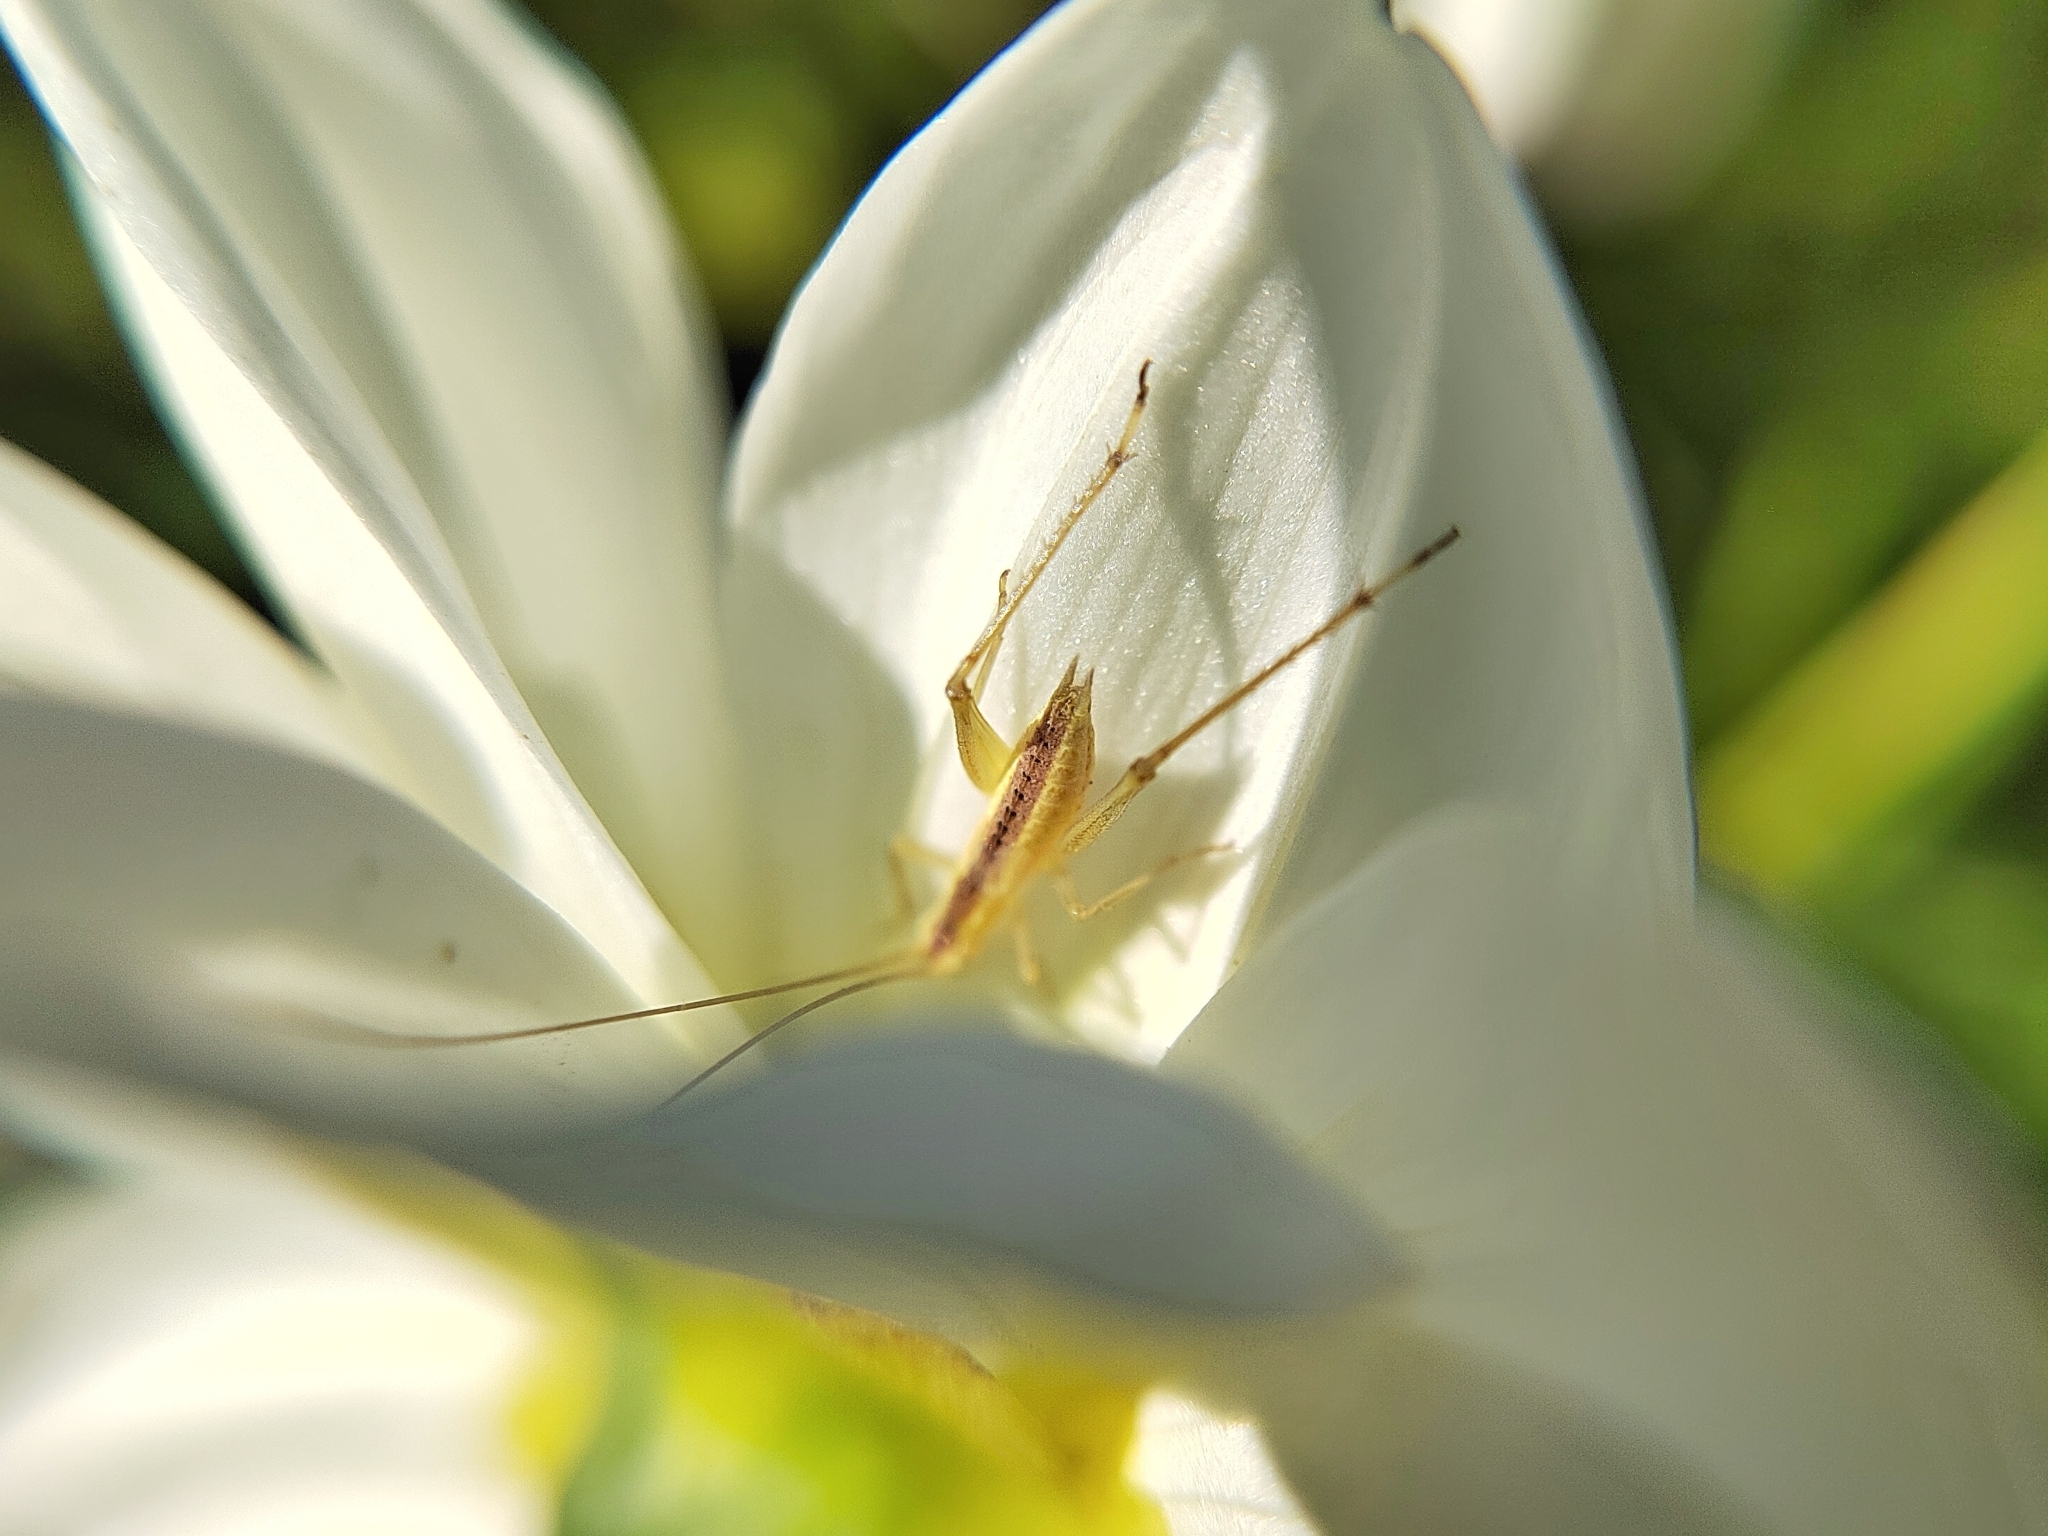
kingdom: Animalia
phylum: Arthropoda
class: Insecta
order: Orthoptera
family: Gryllidae
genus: Oecanthus
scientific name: Oecanthus pellucens
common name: Tree-cricket
